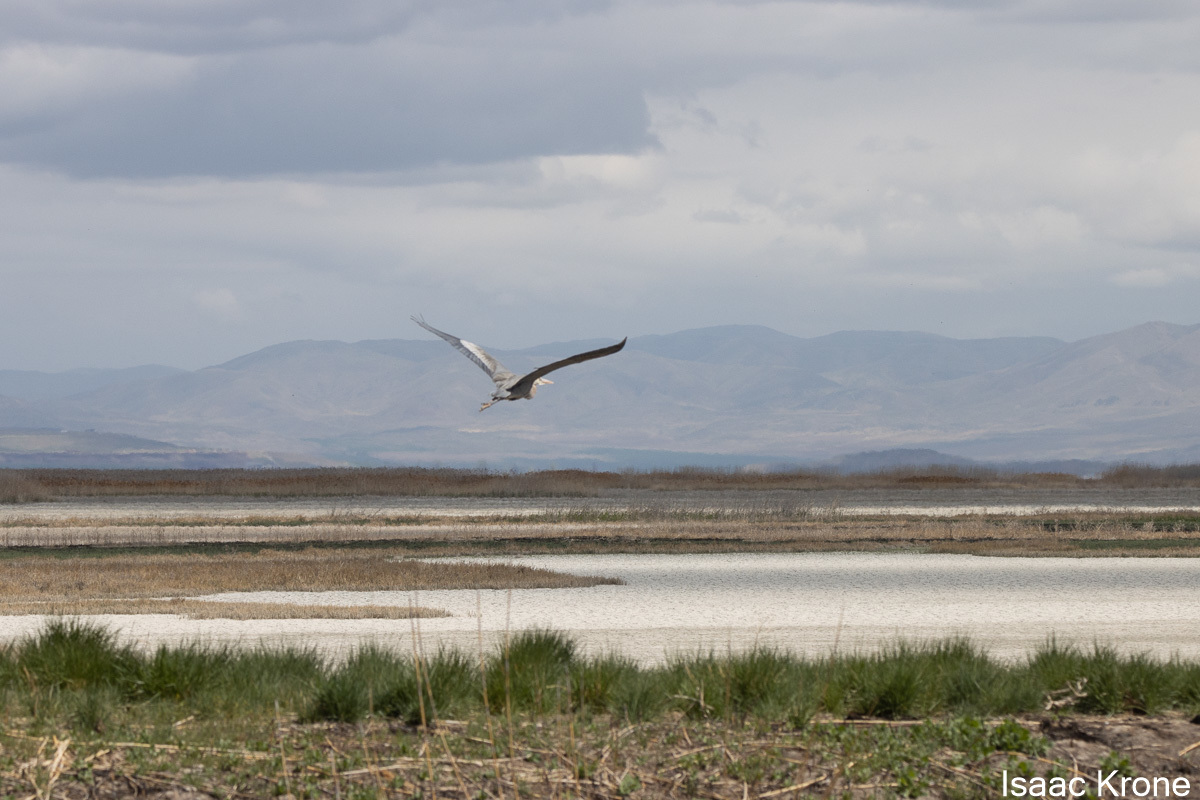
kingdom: Animalia
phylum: Chordata
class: Aves
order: Pelecaniformes
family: Ardeidae
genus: Ardea
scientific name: Ardea herodias
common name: Great blue heron
